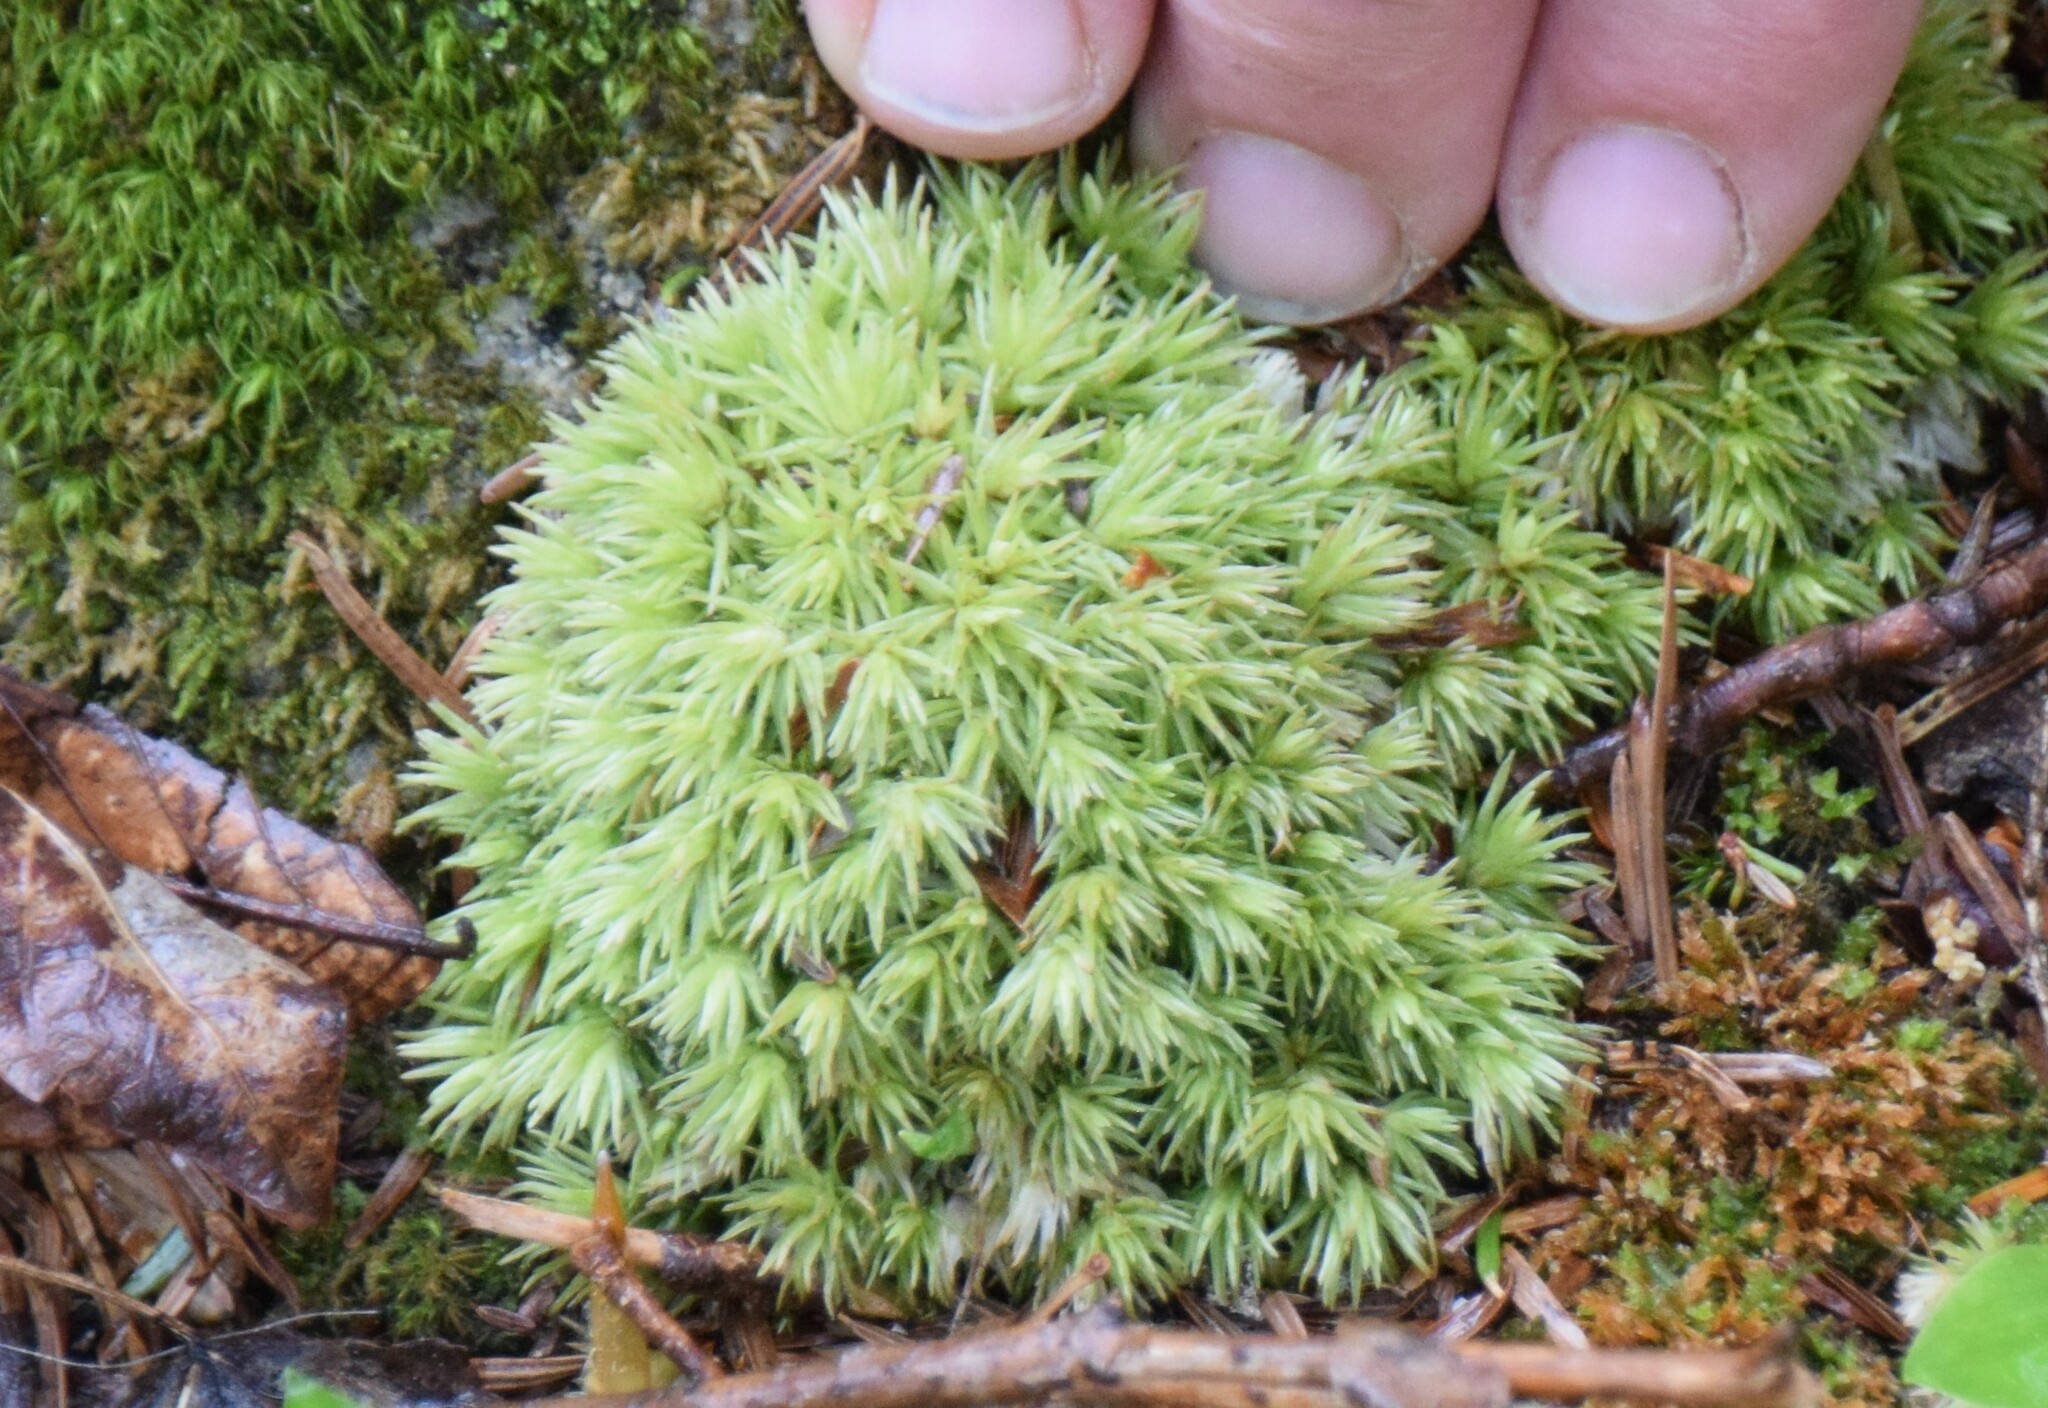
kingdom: Plantae
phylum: Bryophyta
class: Bryopsida
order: Dicranales
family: Leucobryaceae
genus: Leucobryum
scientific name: Leucobryum glaucum
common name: Large white-moss
